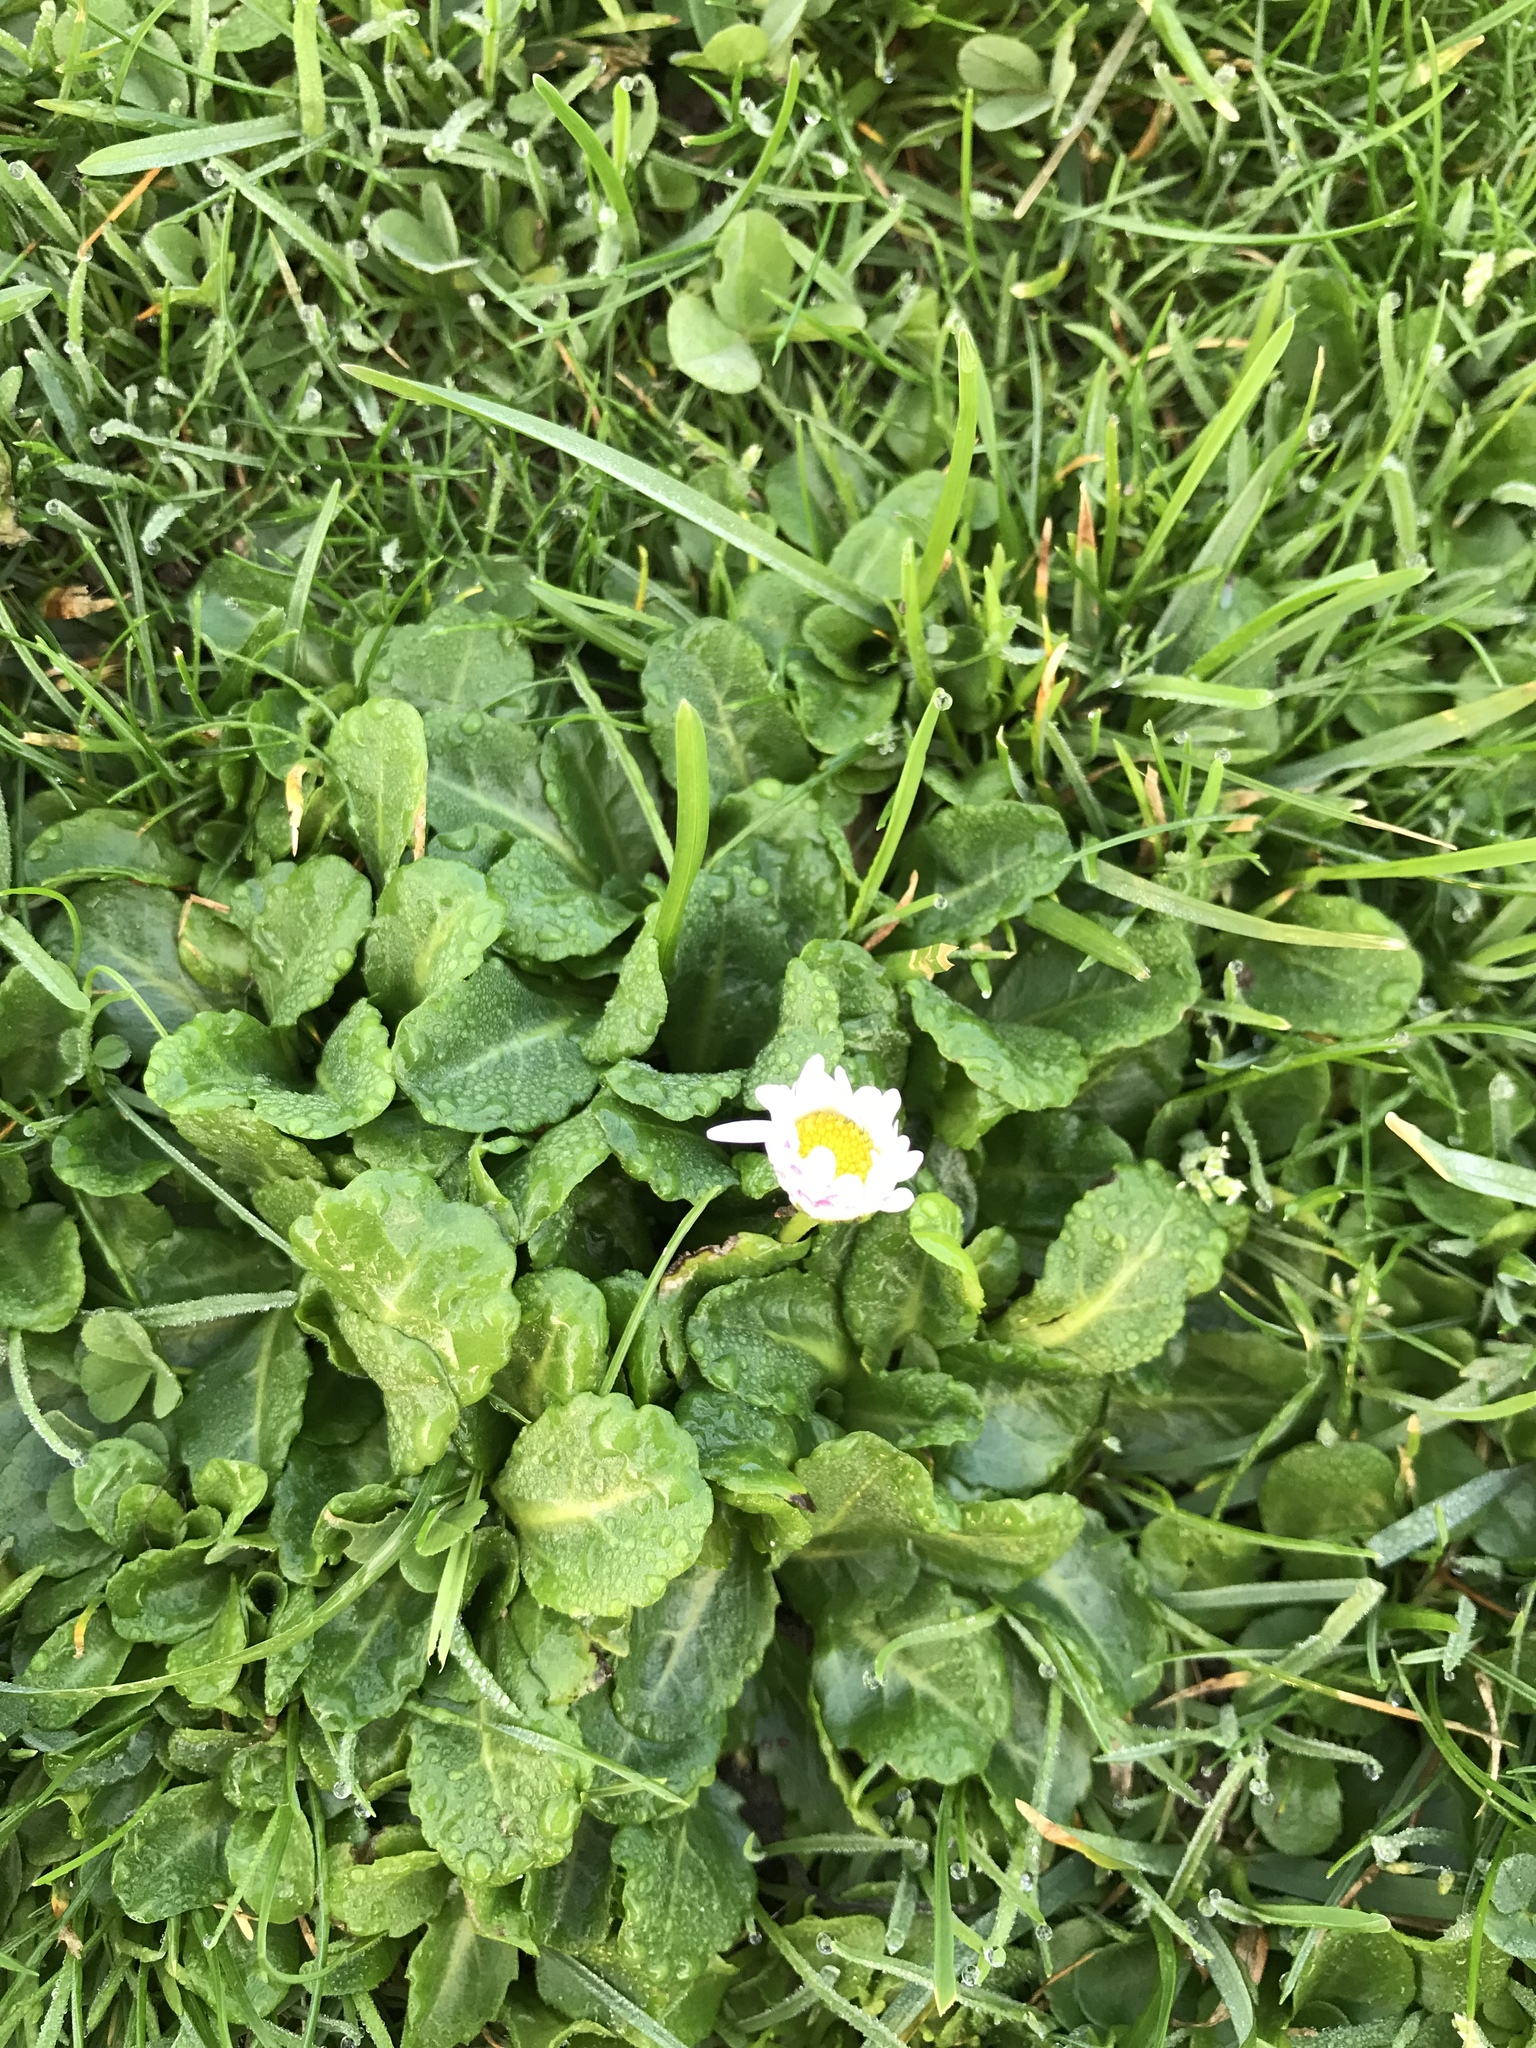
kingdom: Plantae
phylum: Tracheophyta
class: Magnoliopsida
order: Asterales
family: Asteraceae
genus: Bellis
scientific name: Bellis perennis
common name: Lawndaisy
